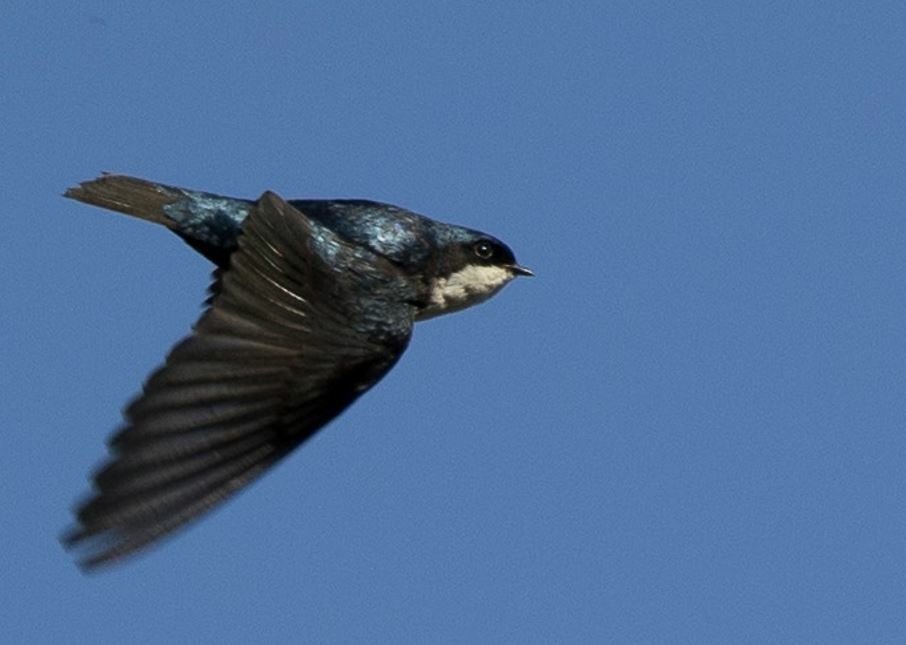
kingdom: Animalia
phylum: Chordata
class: Aves
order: Passeriformes
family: Hirundinidae
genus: Notiochelidon
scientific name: Notiochelidon cyanoleuca
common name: Blue-and-white swallow
